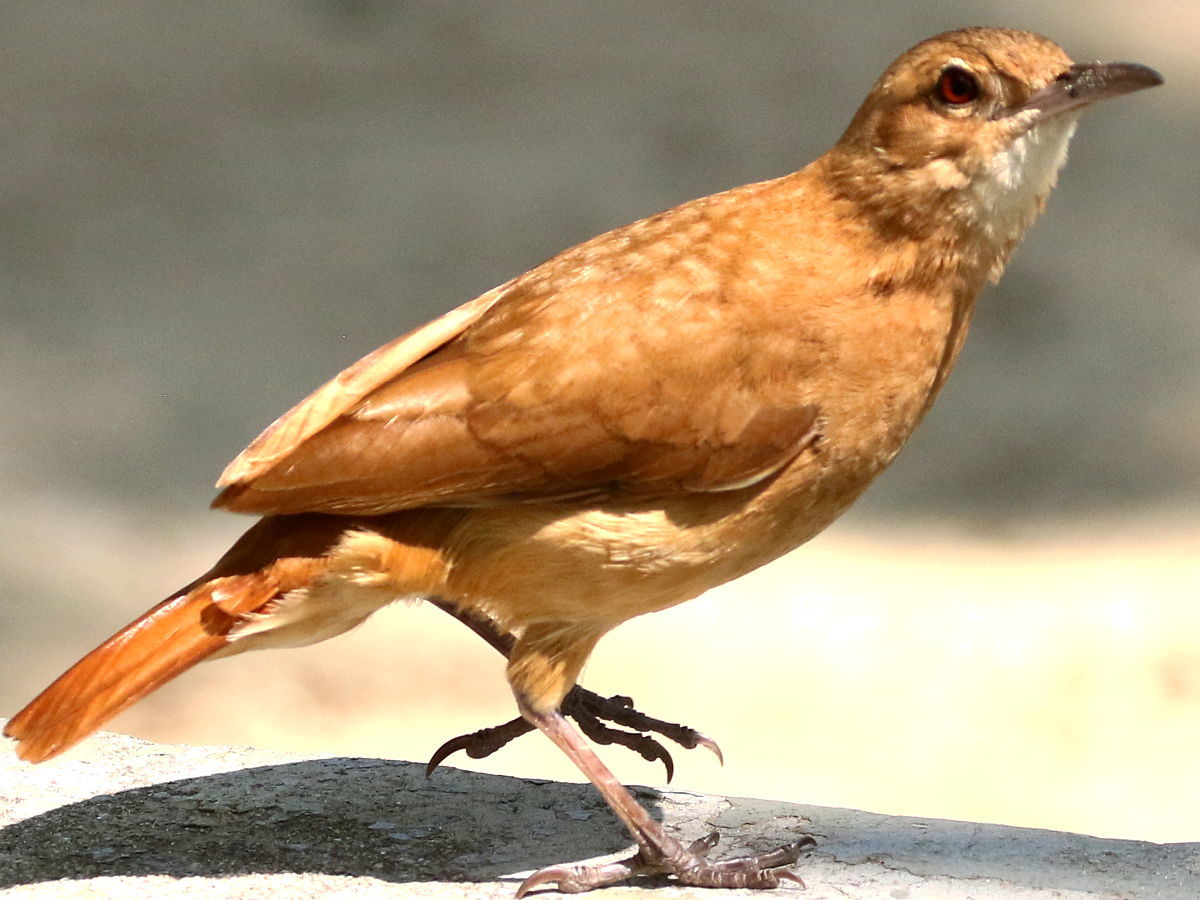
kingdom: Animalia
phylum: Chordata
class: Aves
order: Passeriformes
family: Furnariidae
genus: Furnarius
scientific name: Furnarius rufus
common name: Rufous hornero
